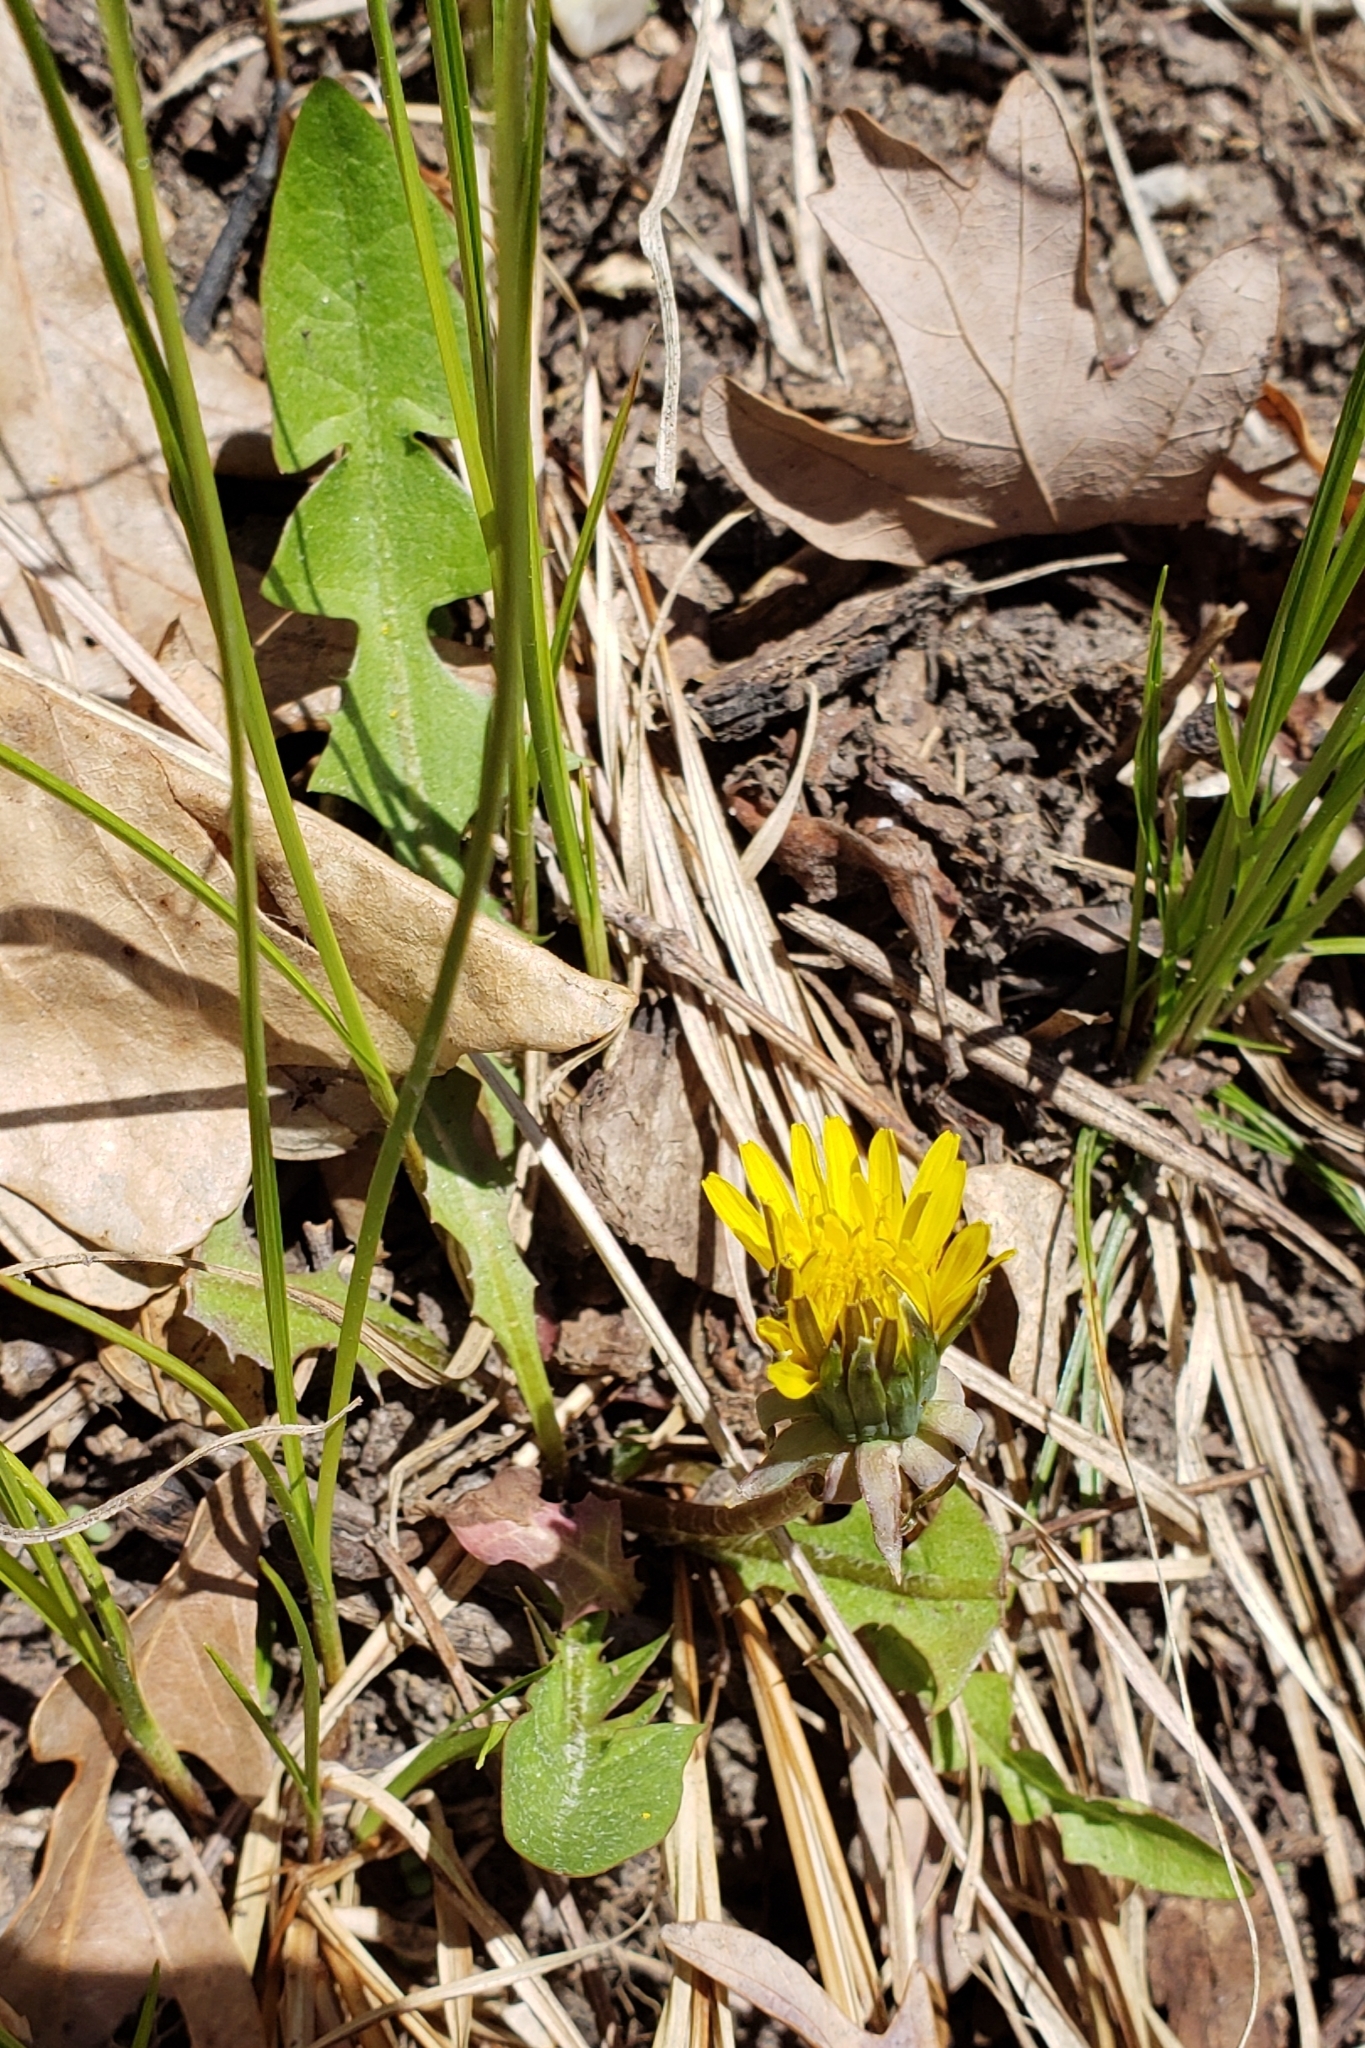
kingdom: Plantae
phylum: Tracheophyta
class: Magnoliopsida
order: Asterales
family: Asteraceae
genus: Taraxacum
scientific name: Taraxacum officinale
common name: Common dandelion
